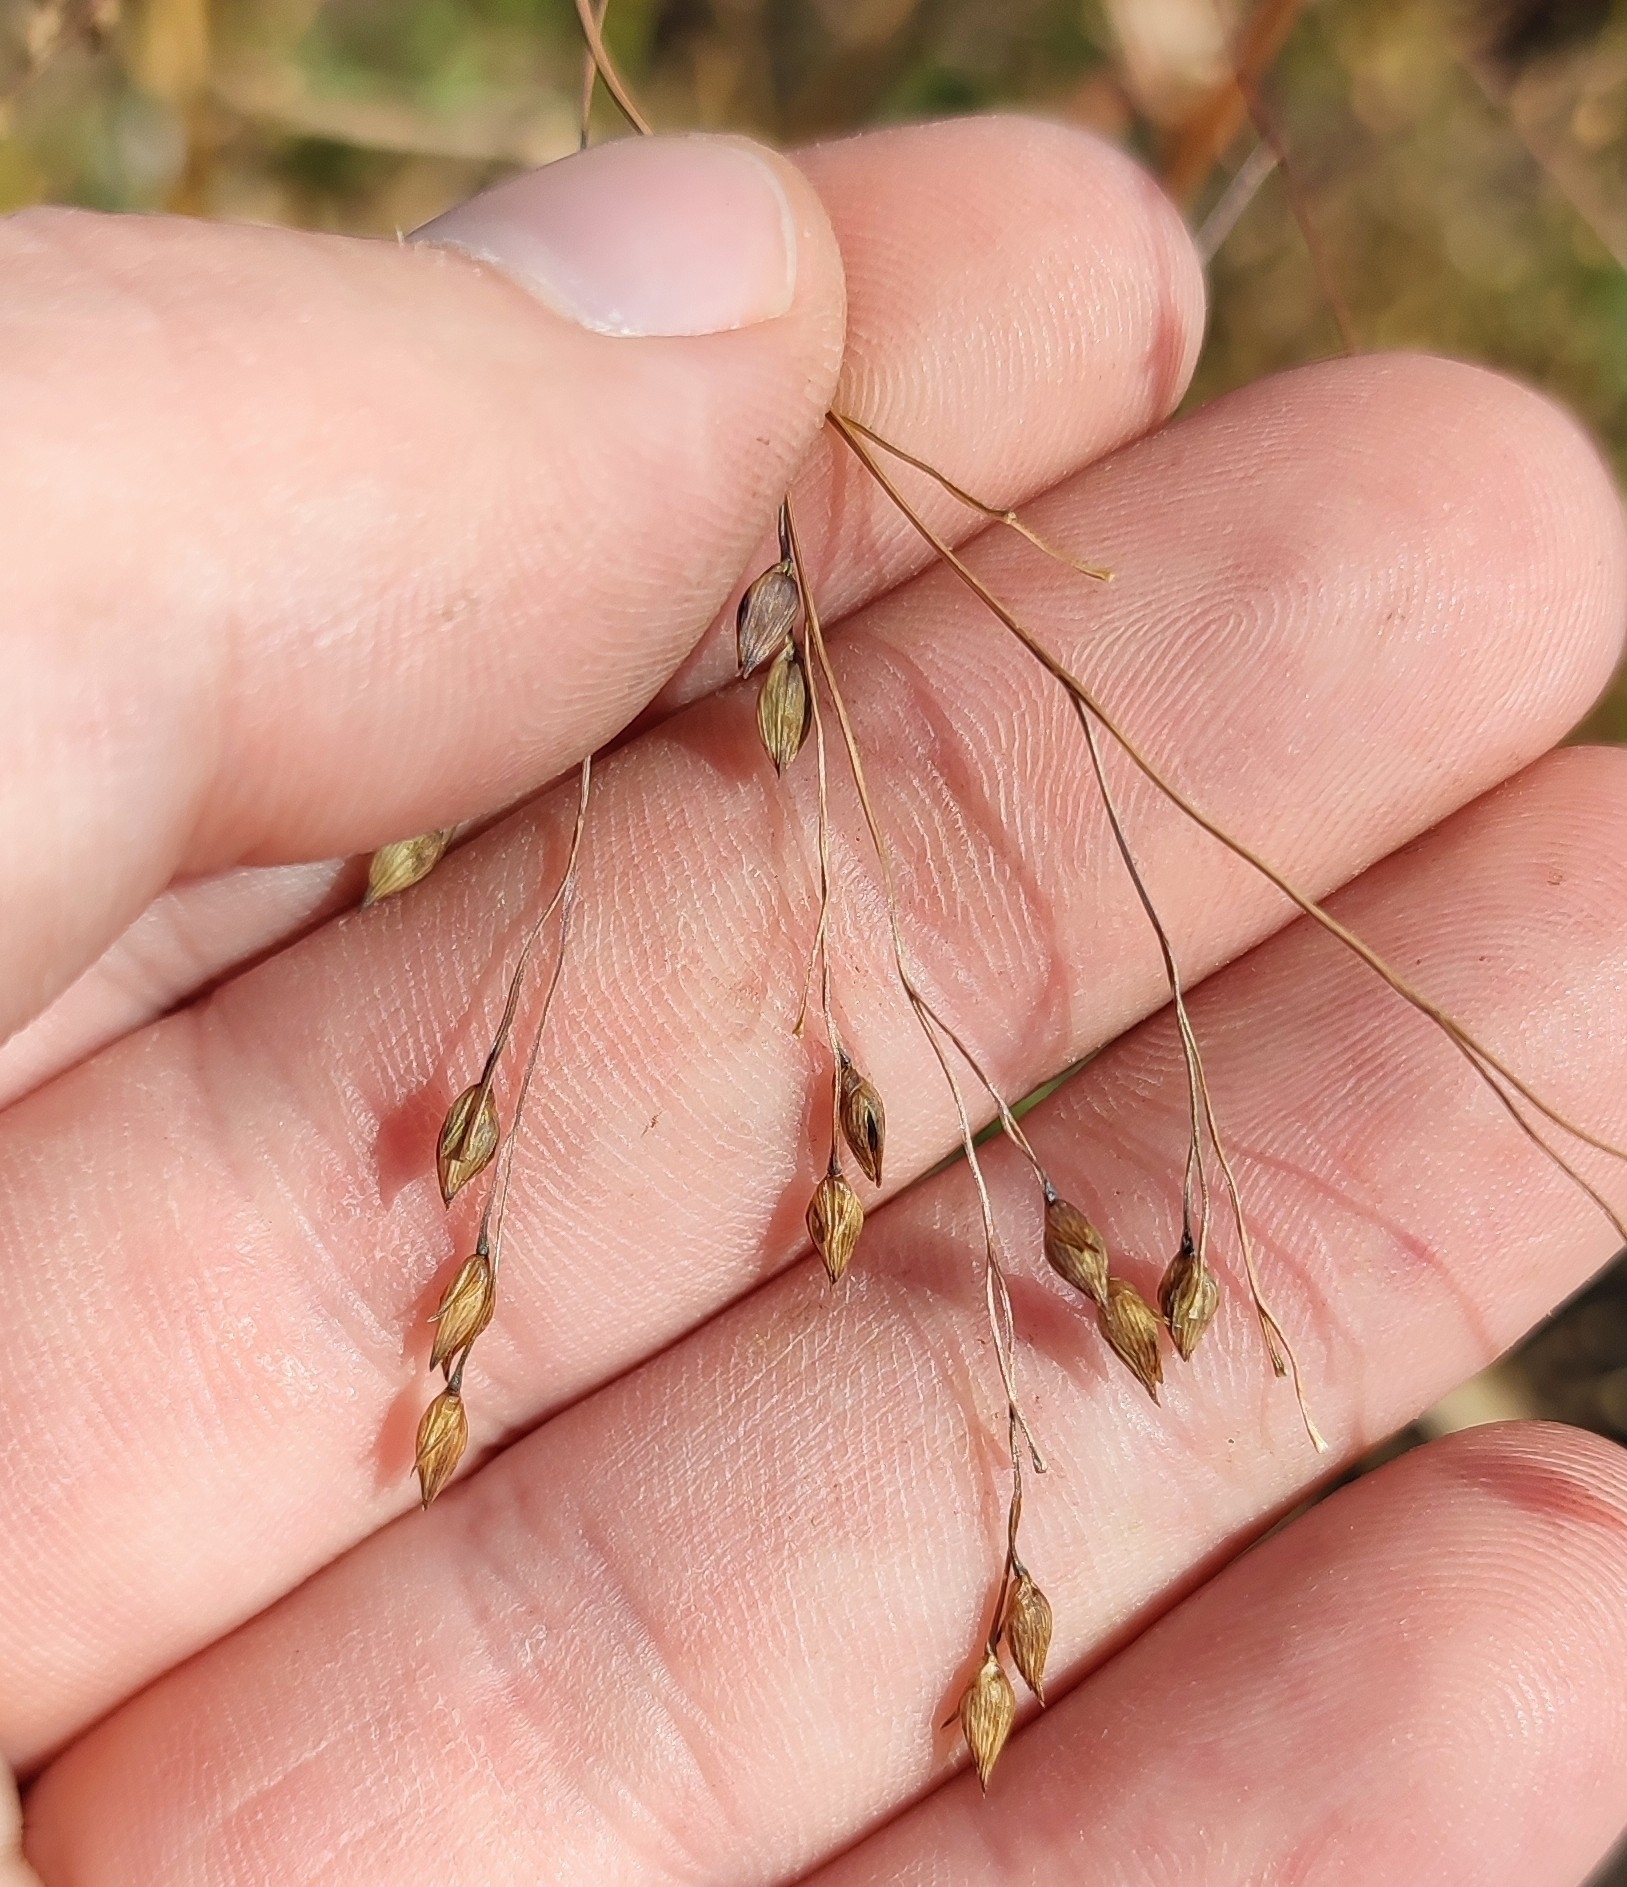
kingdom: Plantae
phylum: Tracheophyta
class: Liliopsida
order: Poales
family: Poaceae
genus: Panicum
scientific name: Panicum miliaceum
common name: Common millet
